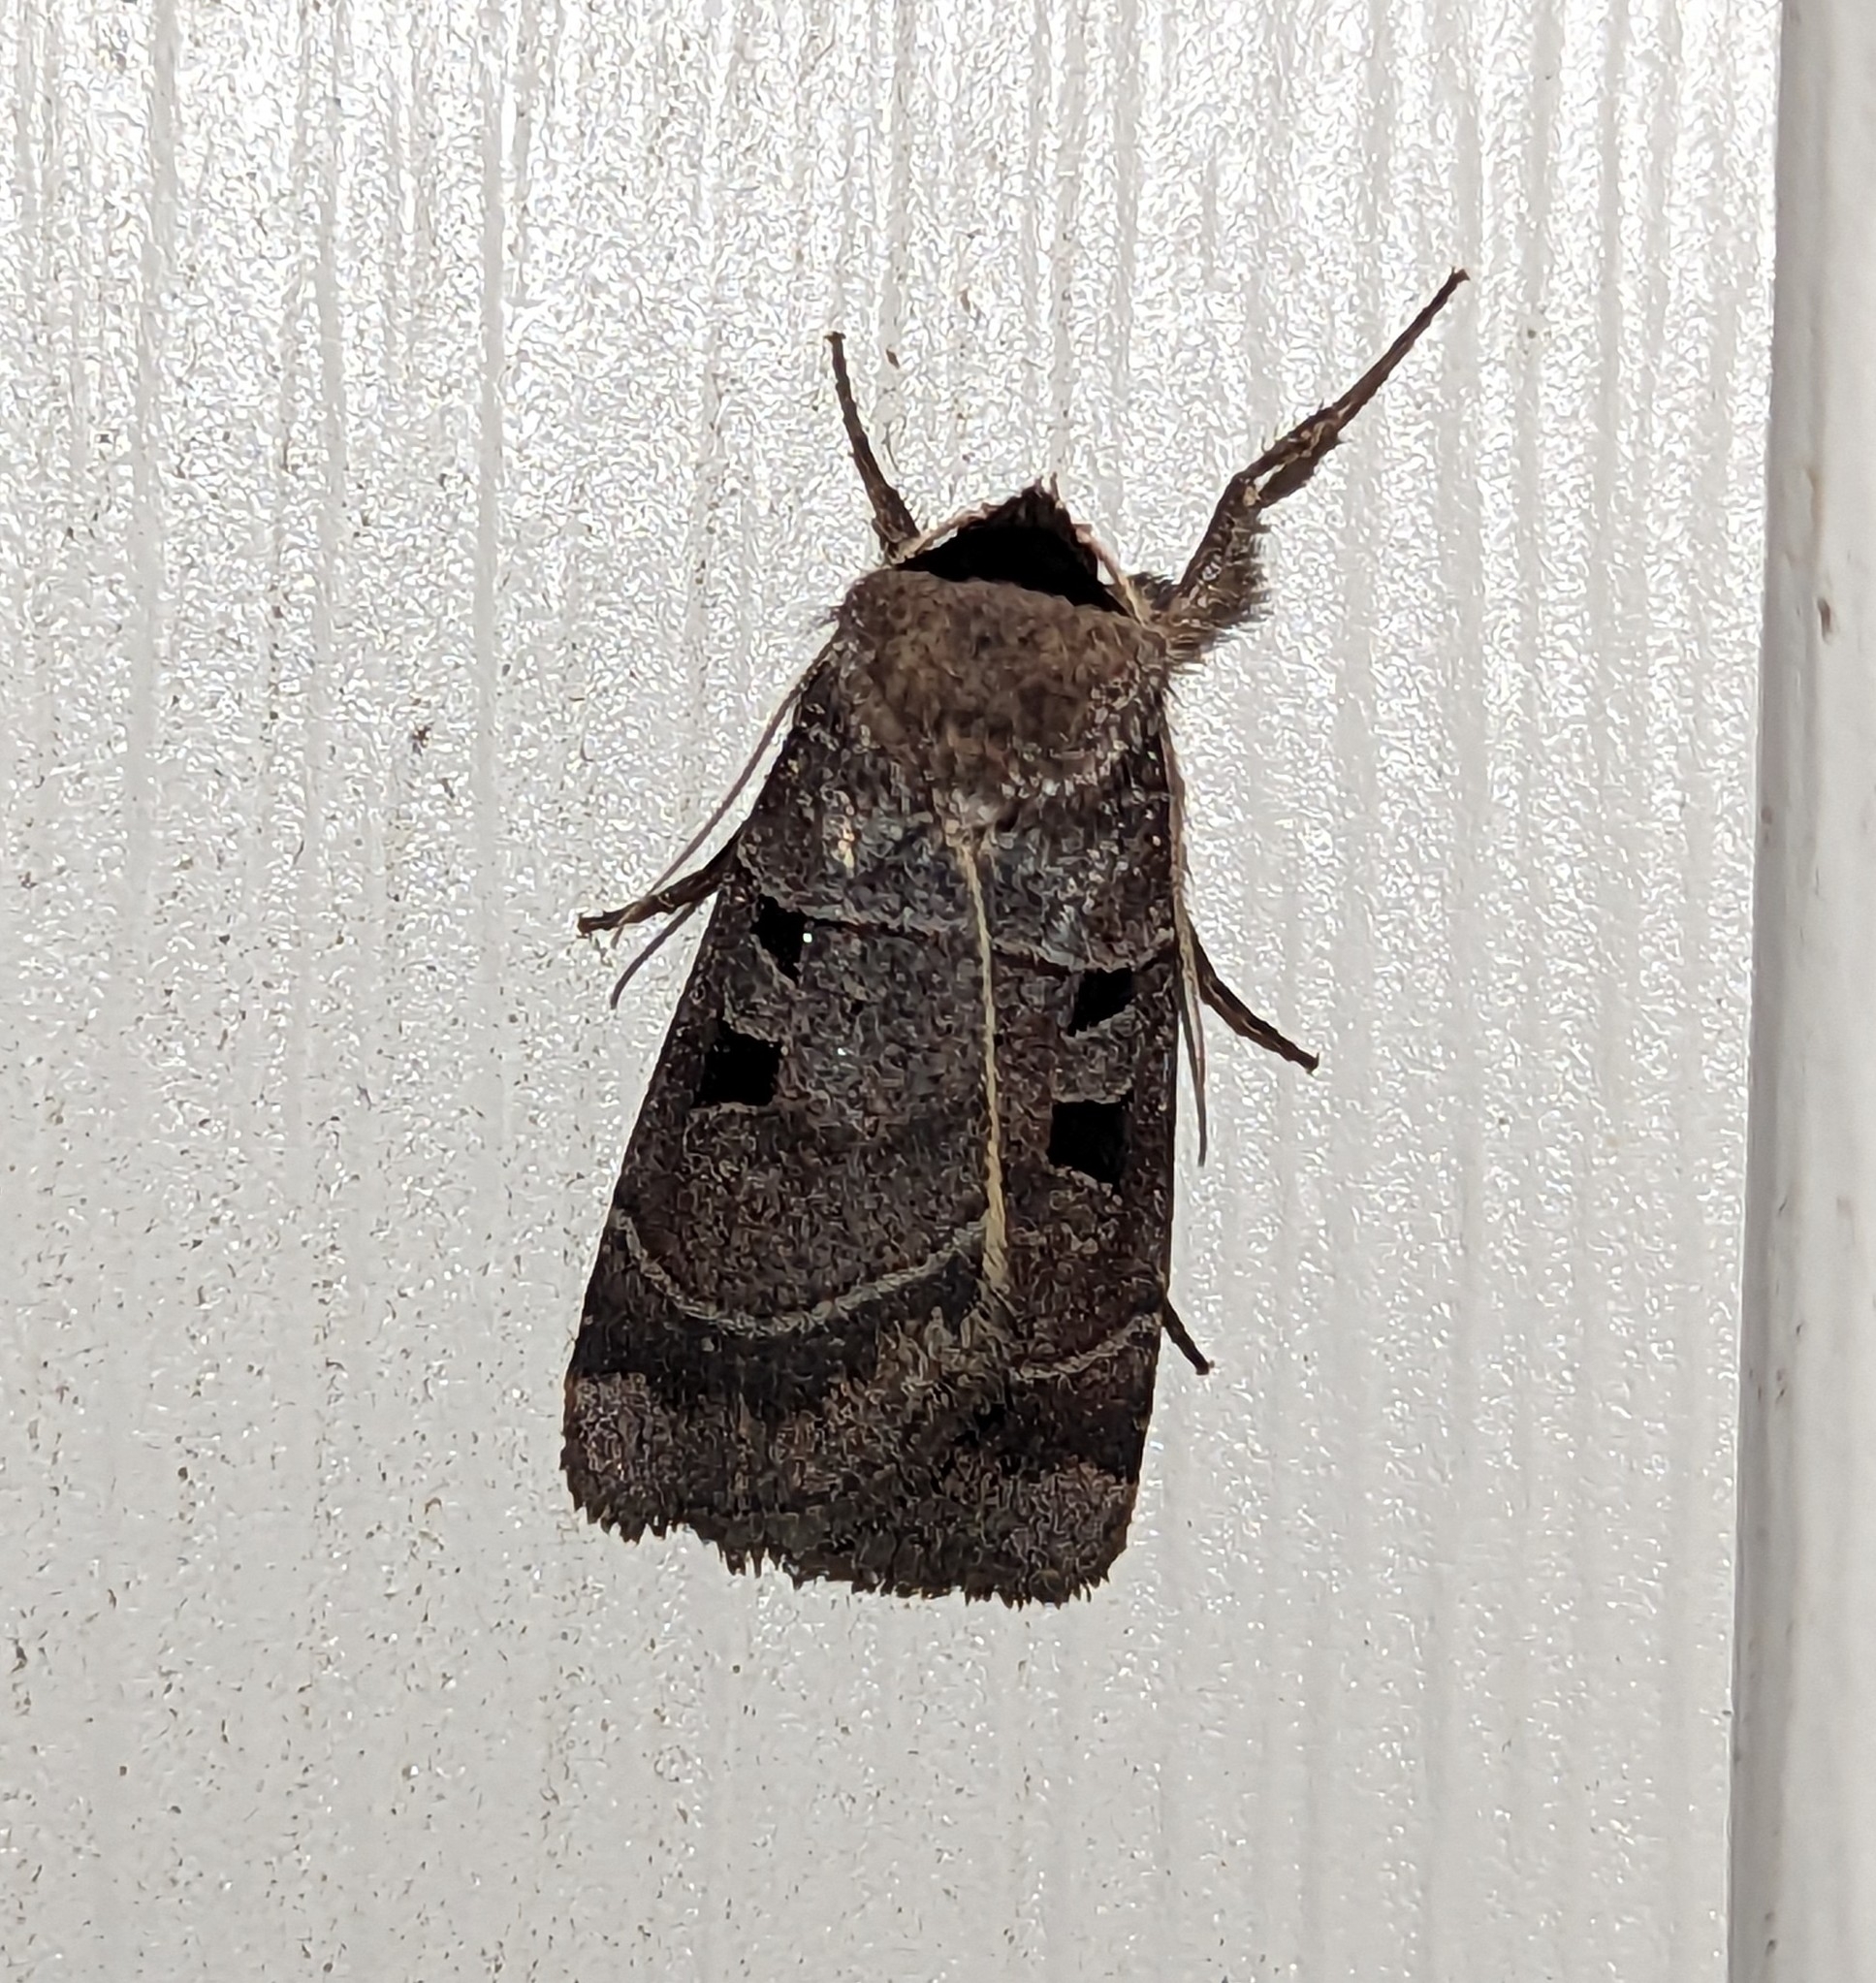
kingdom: Animalia
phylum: Arthropoda
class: Insecta
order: Lepidoptera
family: Noctuidae
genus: Agnorisma
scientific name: Agnorisma bugrai
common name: Collared dart
